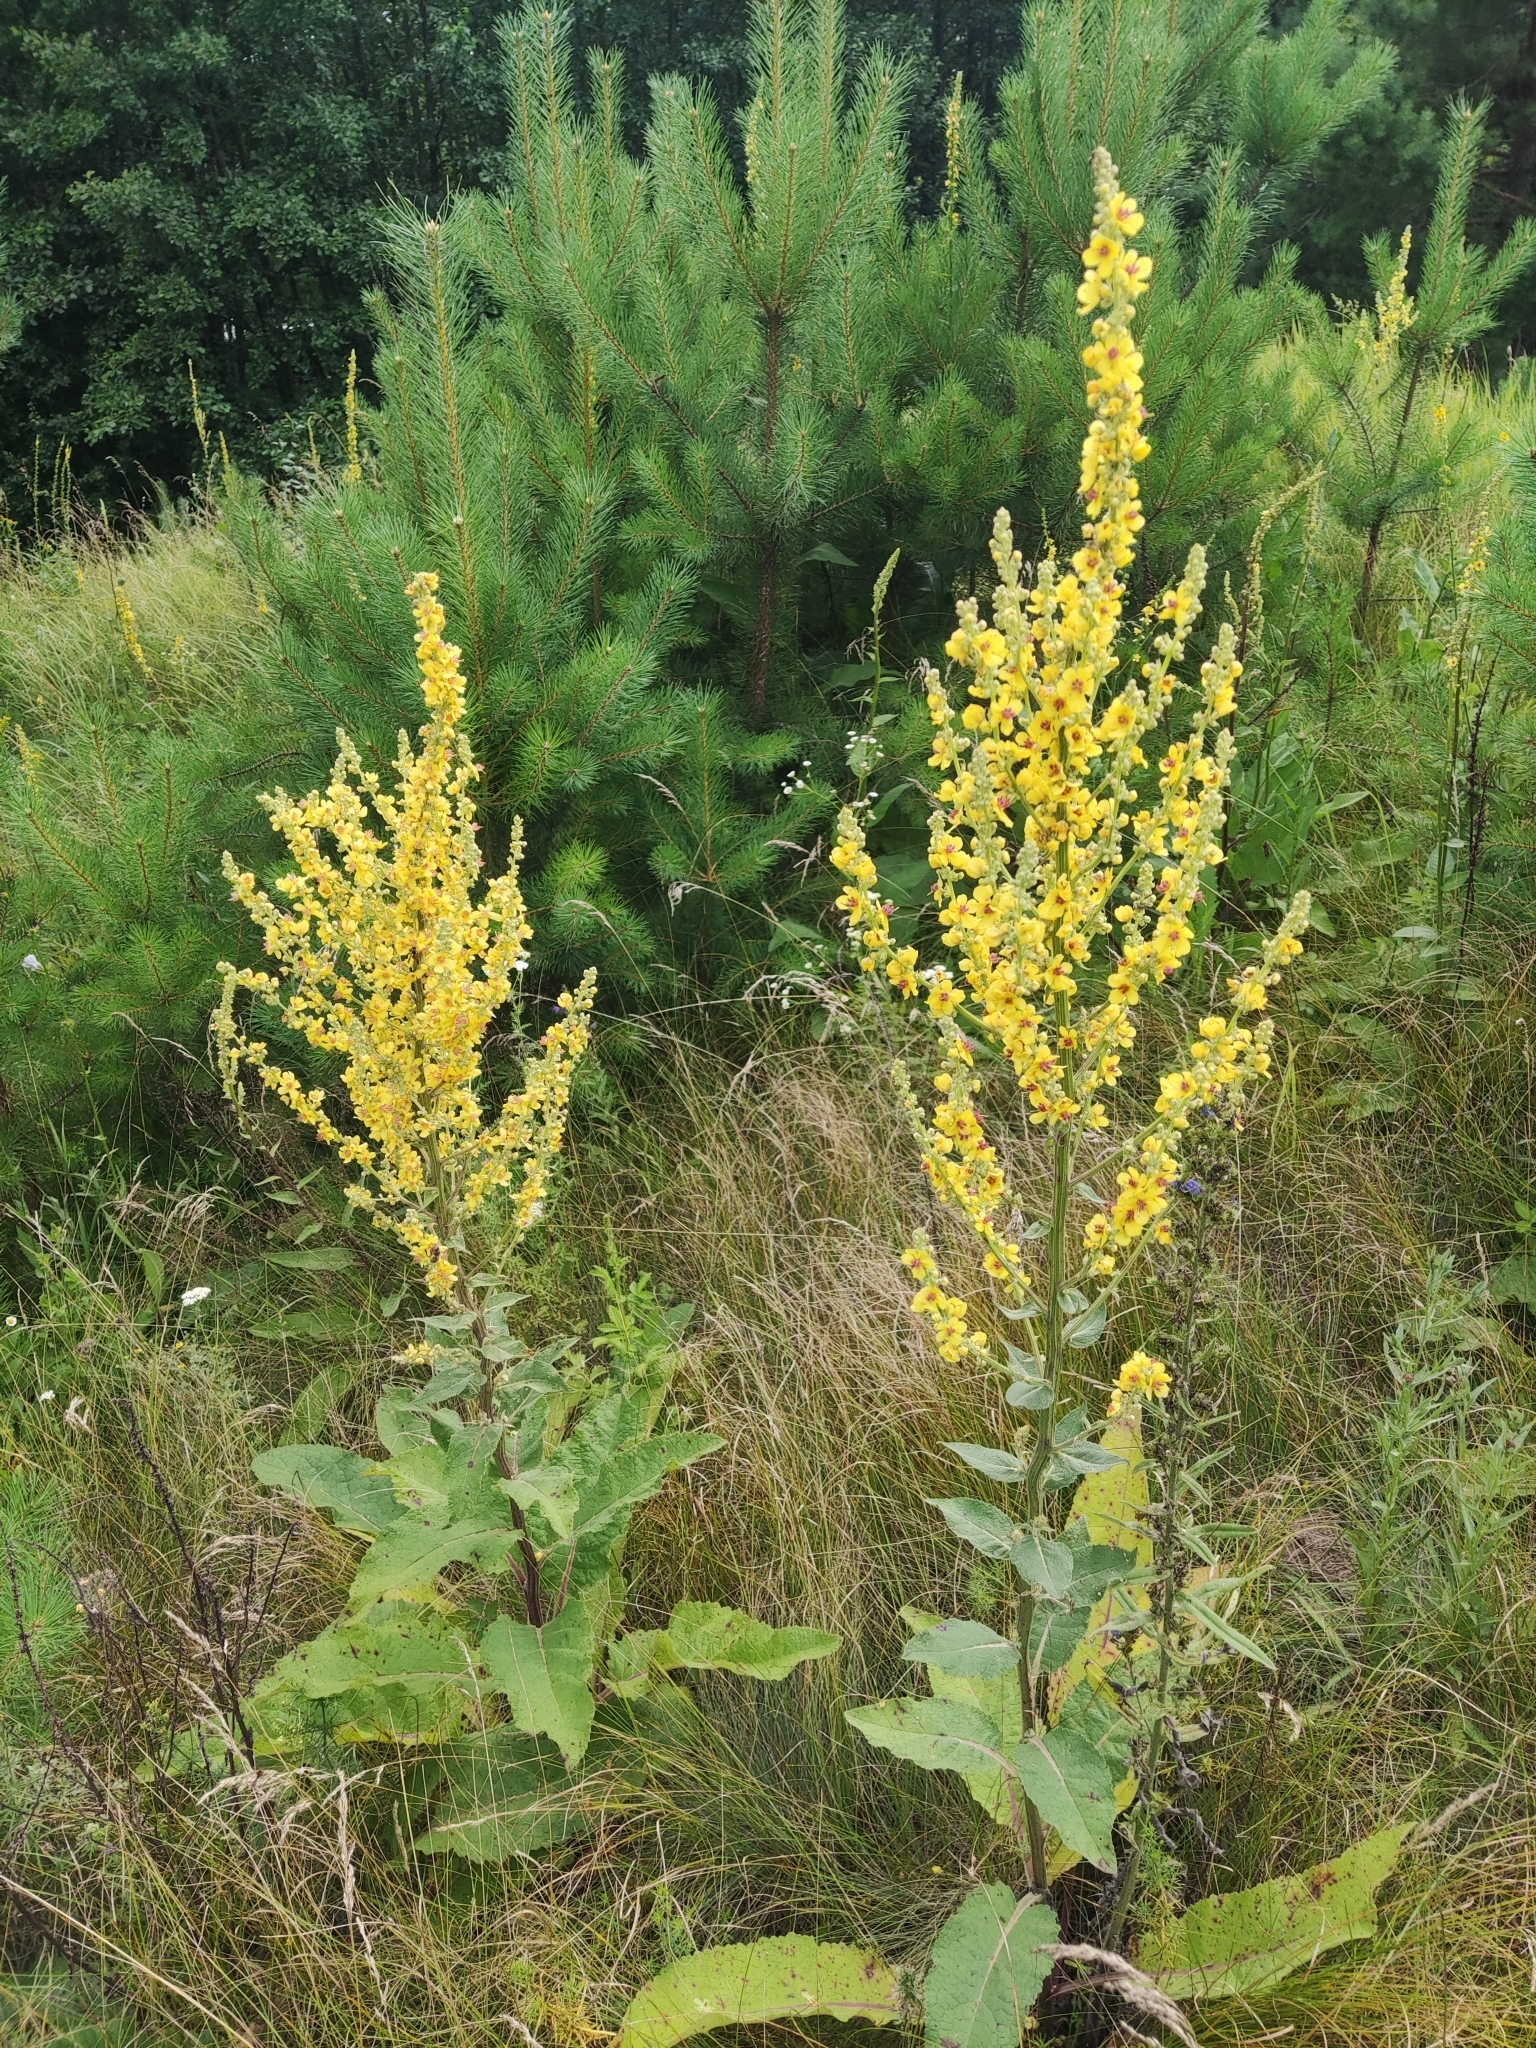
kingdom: Plantae
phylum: Tracheophyta
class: Magnoliopsida
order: Lamiales
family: Scrophulariaceae
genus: Verbascum
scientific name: Verbascum lychnitis
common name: White mullein
